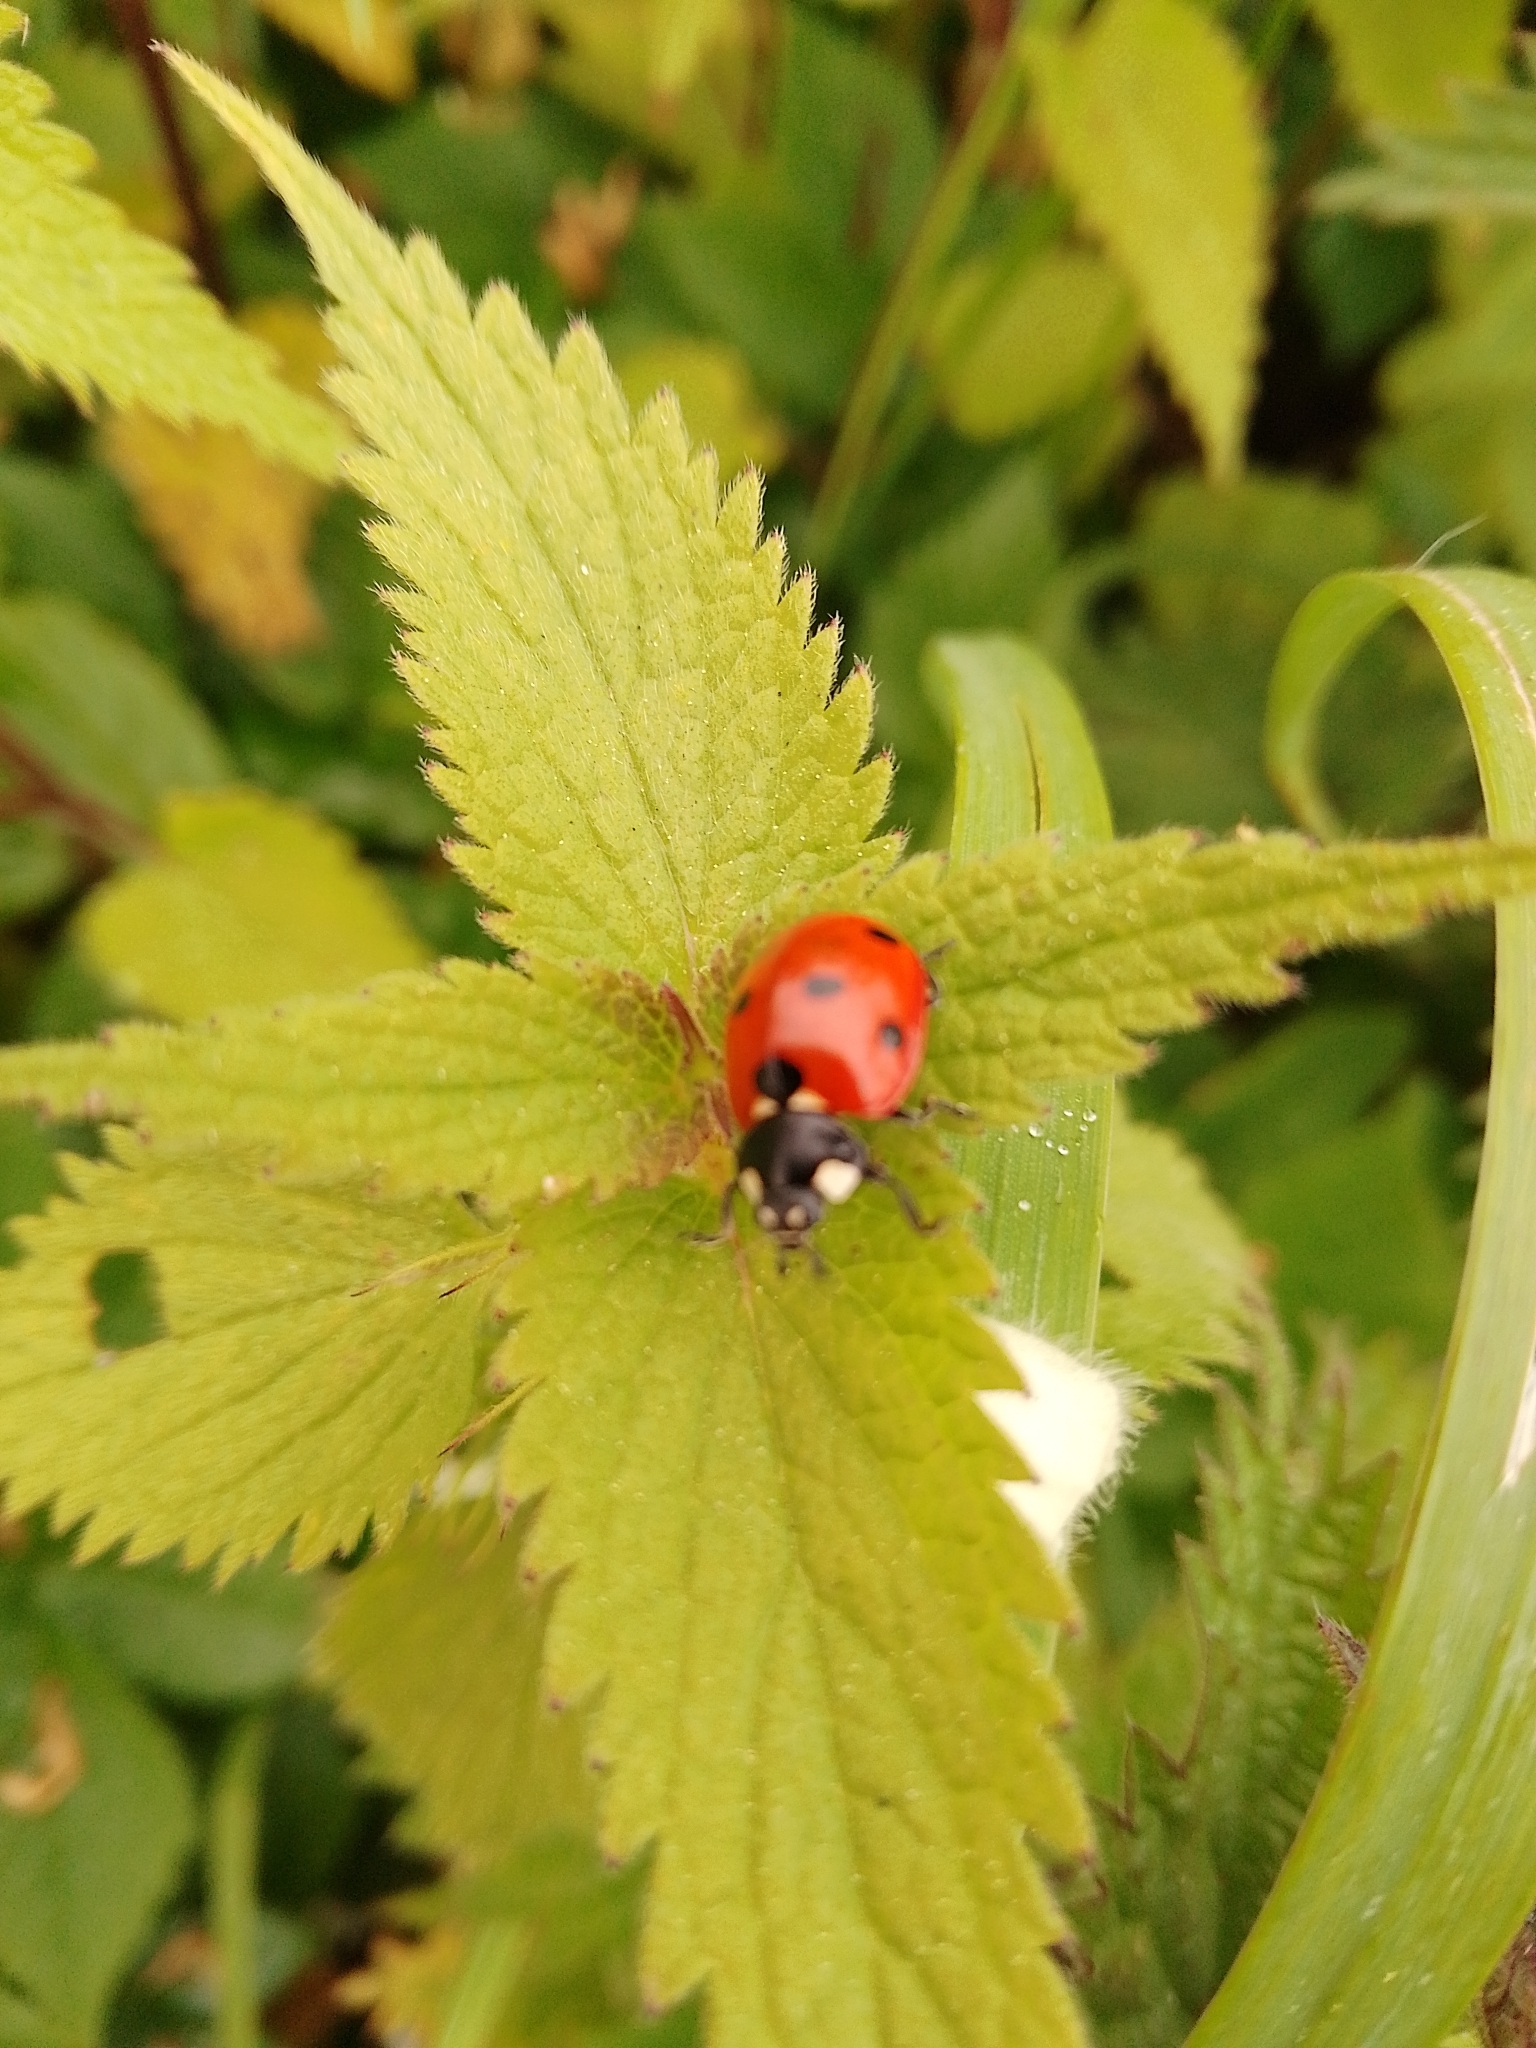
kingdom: Animalia
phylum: Arthropoda
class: Insecta
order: Coleoptera
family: Coccinellidae
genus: Coccinella
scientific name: Coccinella septempunctata
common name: Sevenspotted lady beetle
